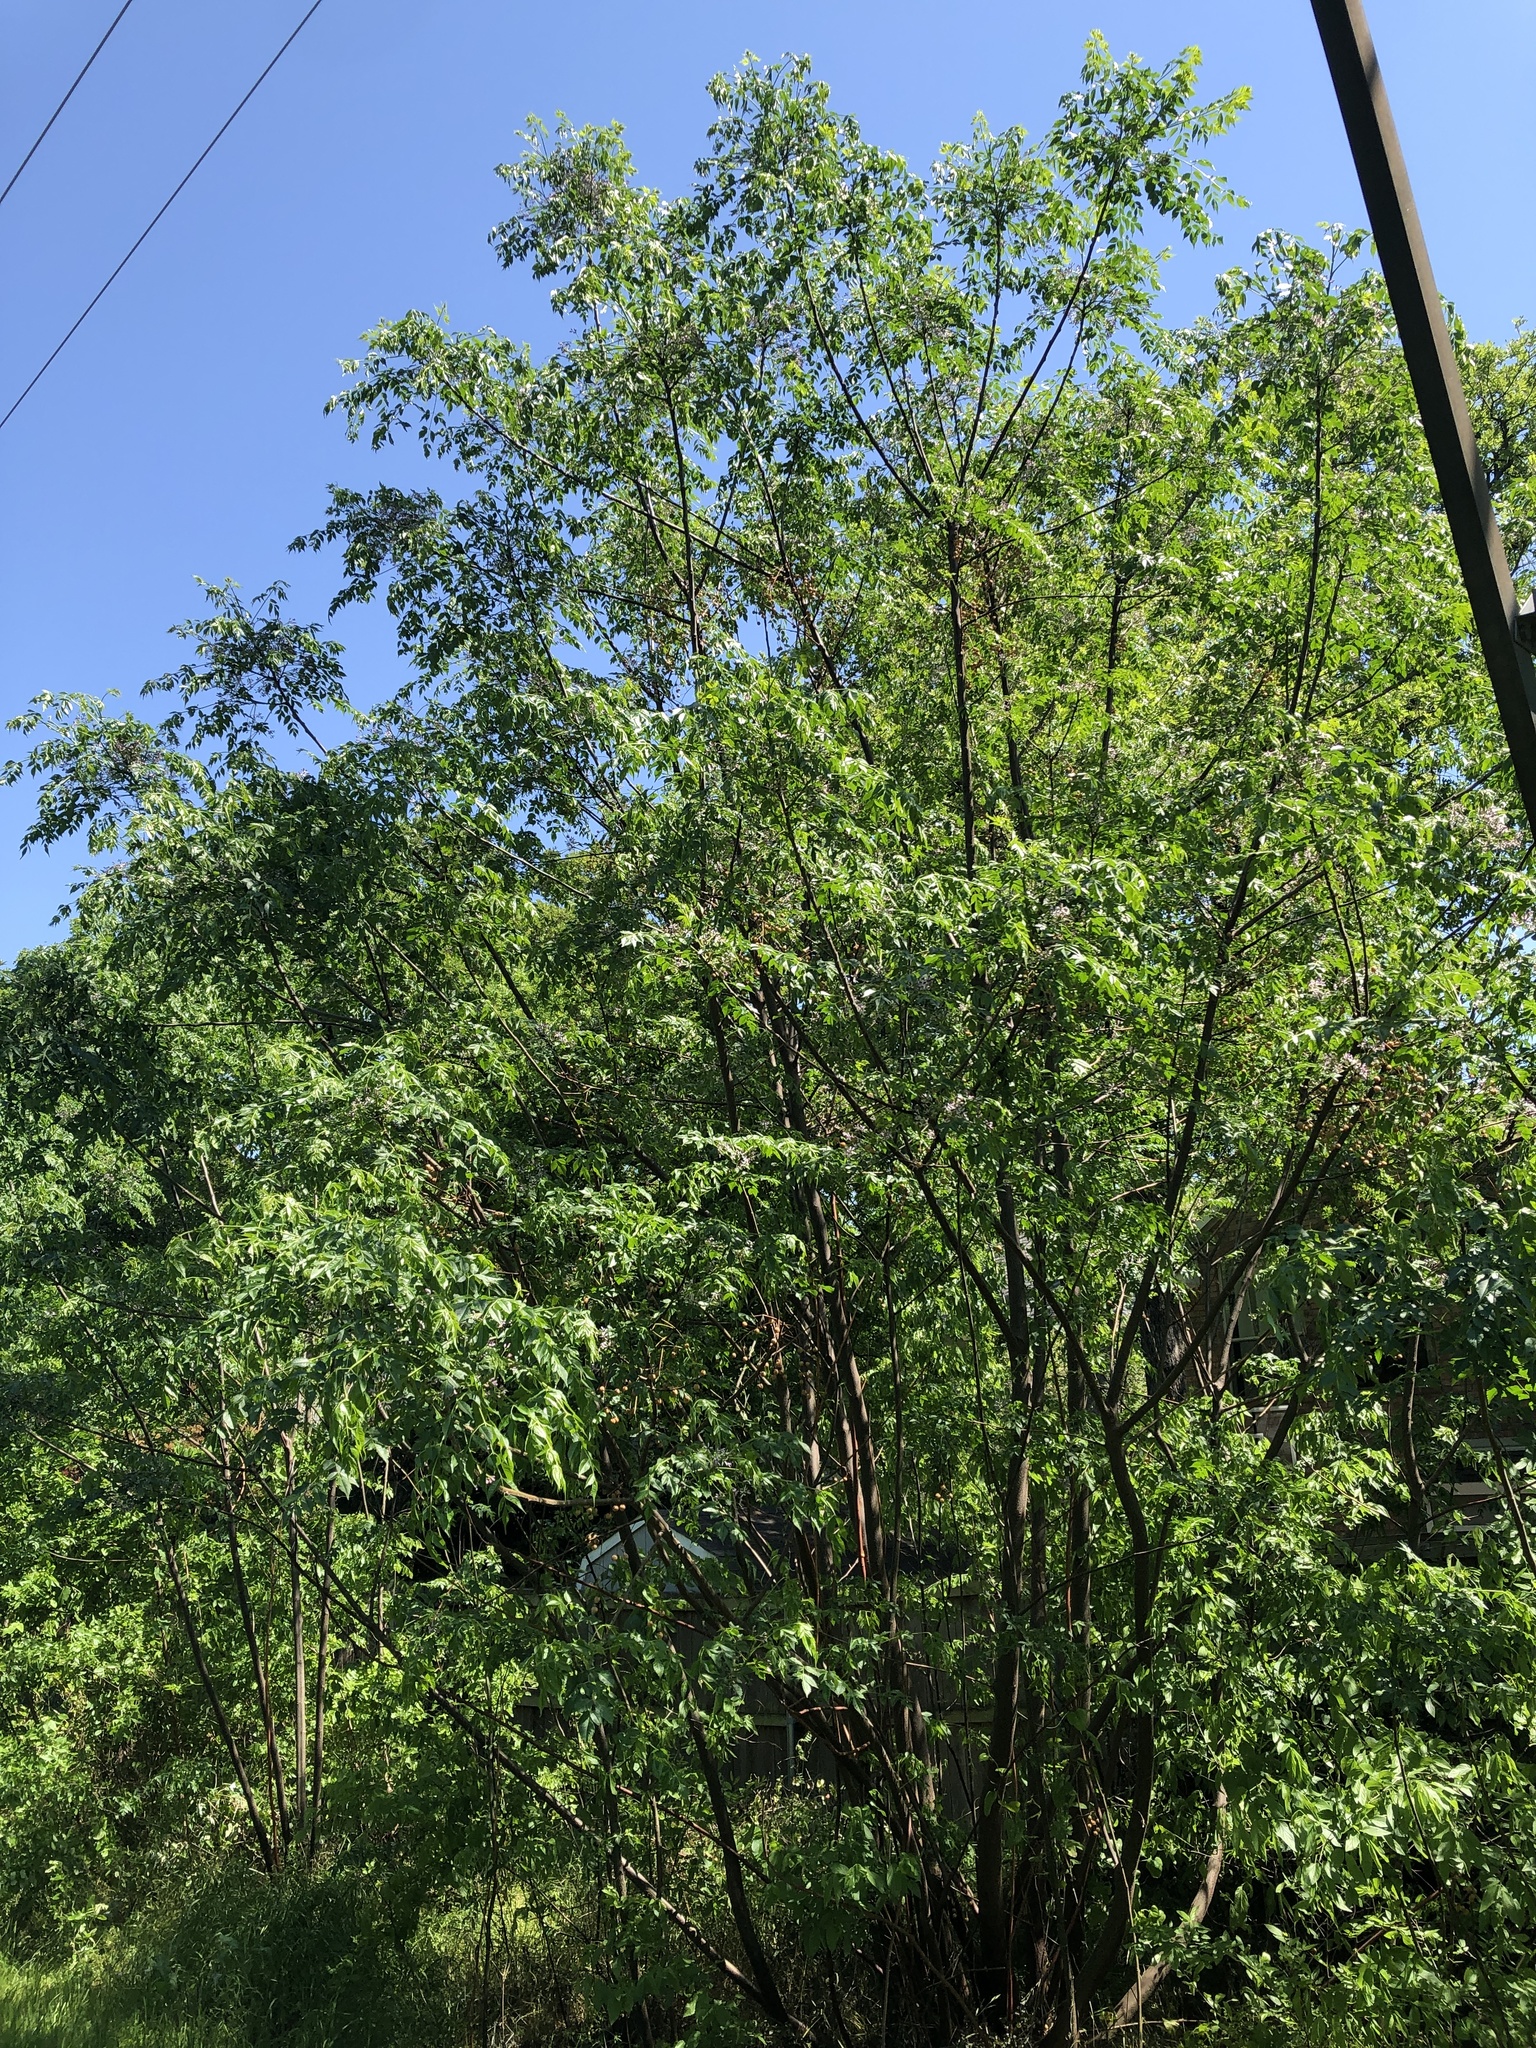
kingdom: Plantae
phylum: Tracheophyta
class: Magnoliopsida
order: Sapindales
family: Meliaceae
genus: Melia
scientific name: Melia azedarach
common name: Chinaberrytree
